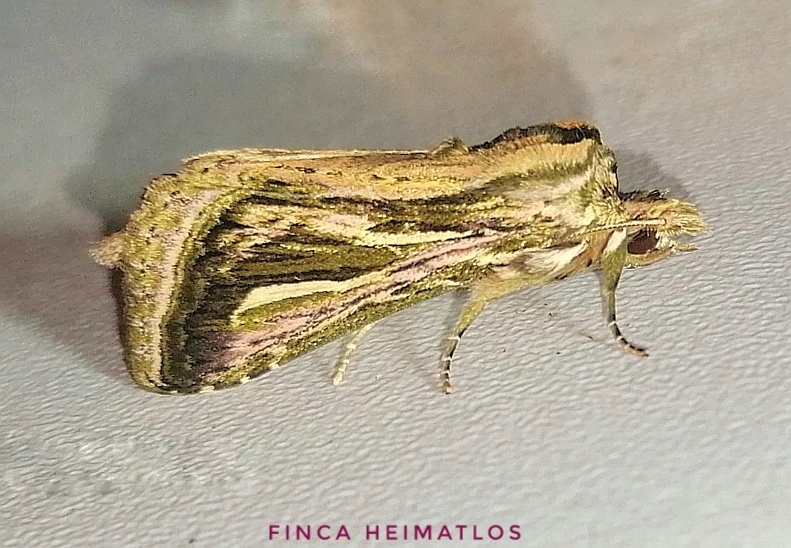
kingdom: Animalia
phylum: Arthropoda
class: Insecta
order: Lepidoptera
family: Notodontidae
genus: Lemairegisa
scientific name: Lemairegisa Lepasta bractea
